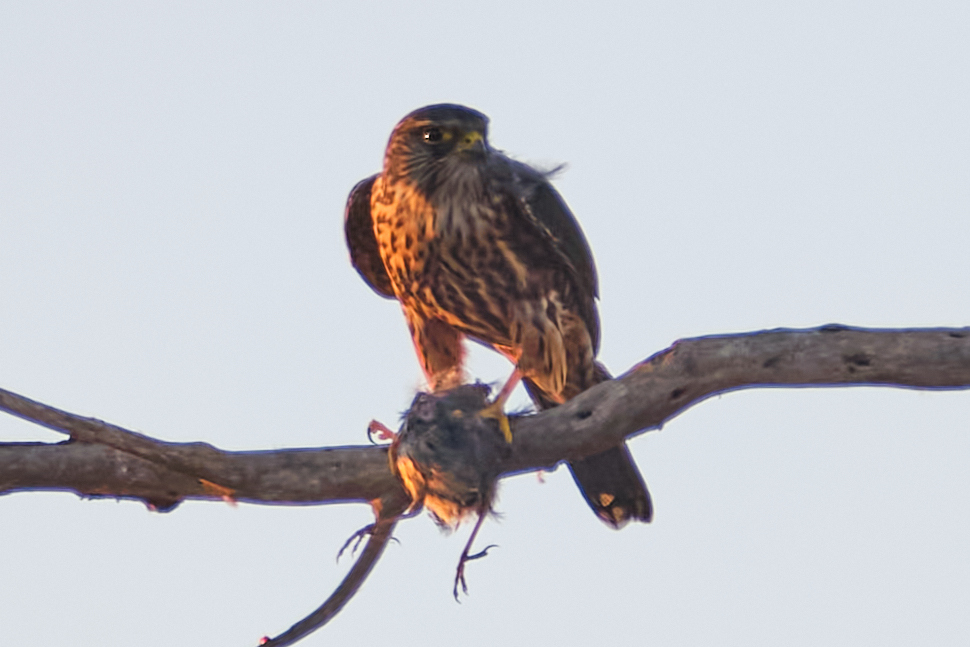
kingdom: Animalia
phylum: Chordata
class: Aves
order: Falconiformes
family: Falconidae
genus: Falco
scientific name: Falco columbarius
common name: Merlin
